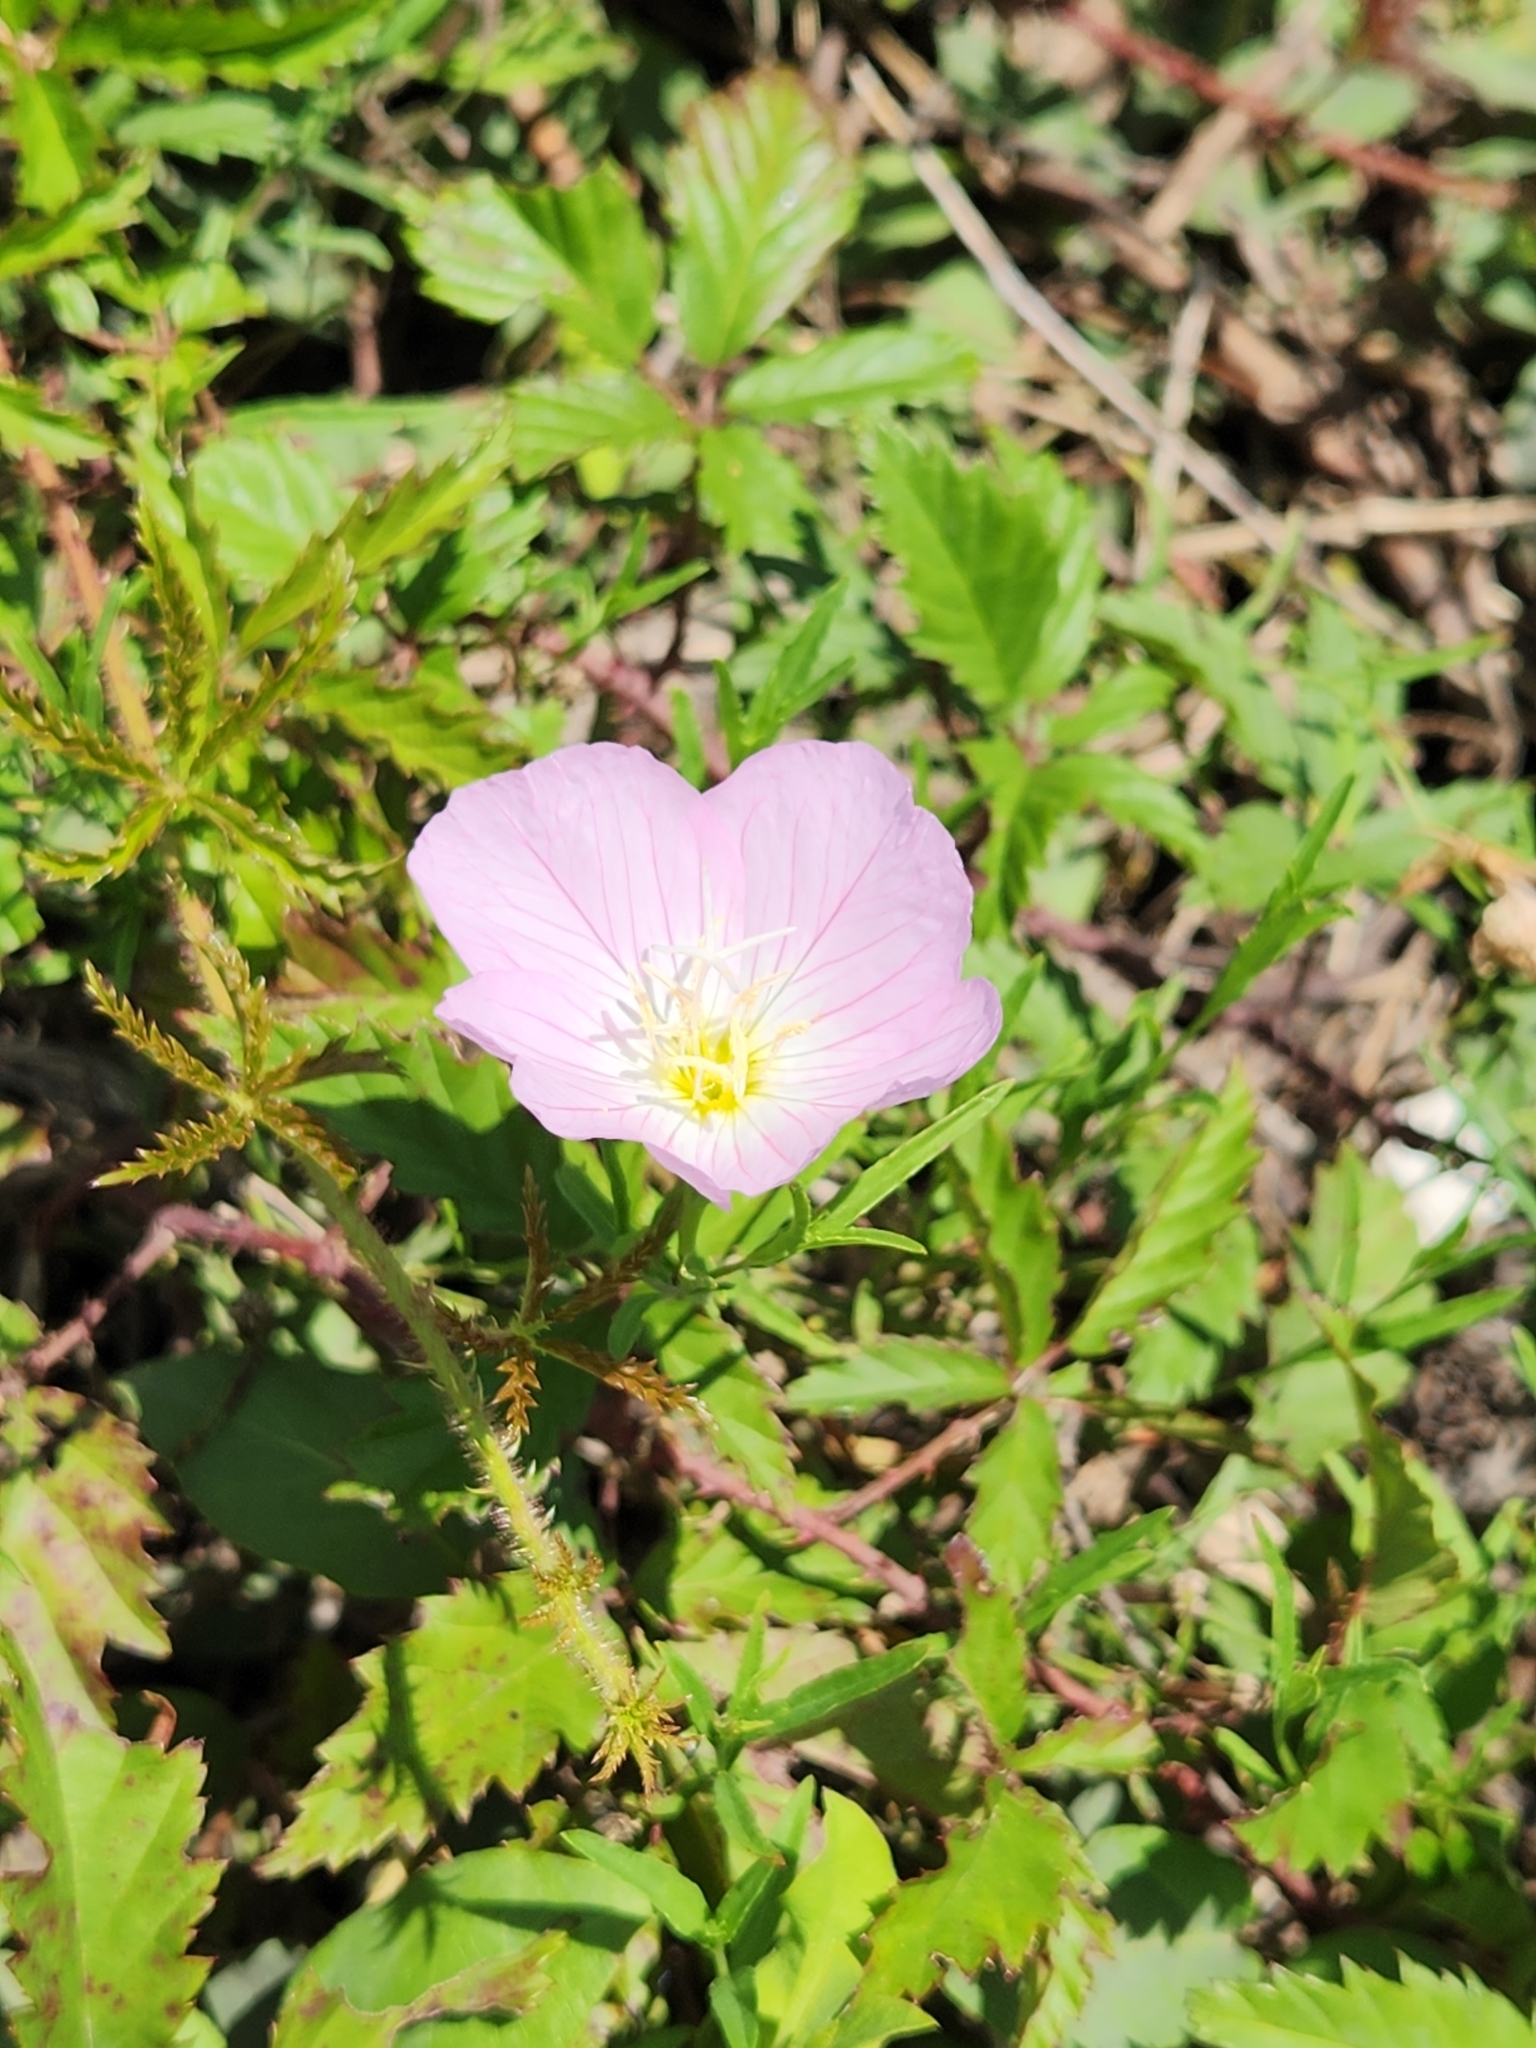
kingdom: Plantae
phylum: Tracheophyta
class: Magnoliopsida
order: Myrtales
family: Onagraceae
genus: Oenothera
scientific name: Oenothera speciosa
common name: White evening-primrose
